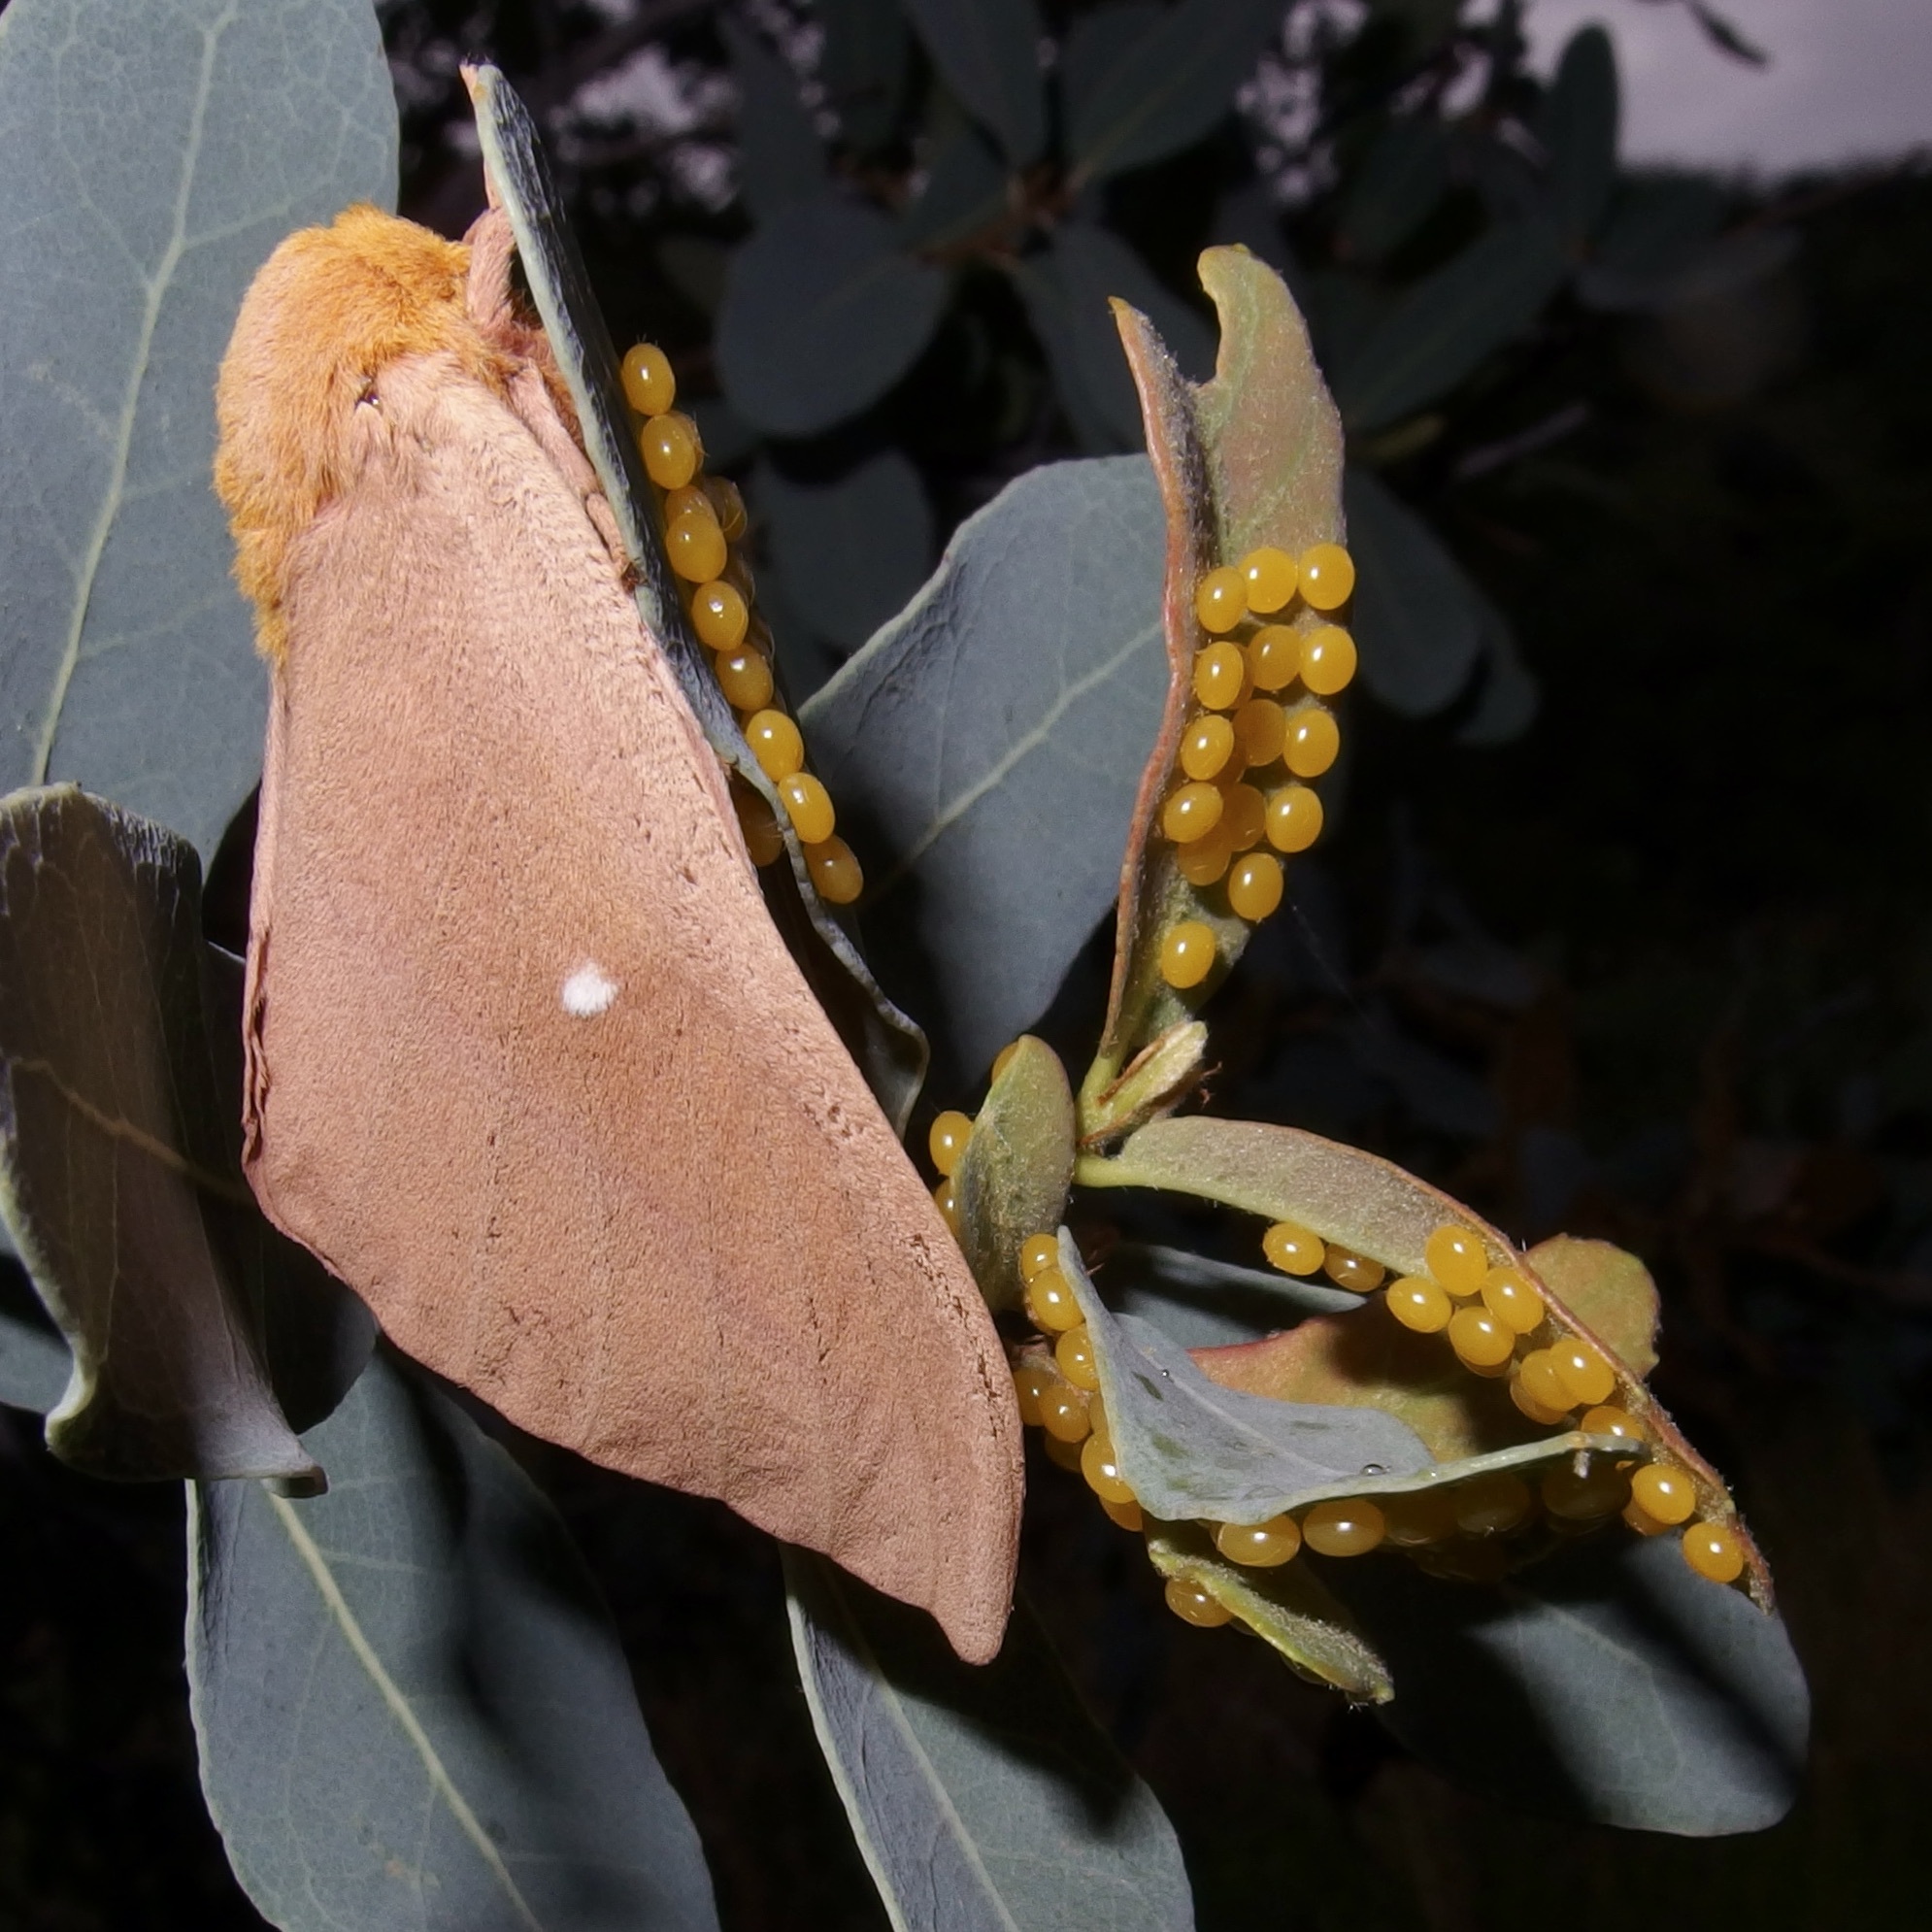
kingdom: Animalia
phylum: Arthropoda
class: Insecta
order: Lepidoptera
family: Saturniidae
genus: Anisota
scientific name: Anisota oslari
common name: Oslar's oakworm moth
